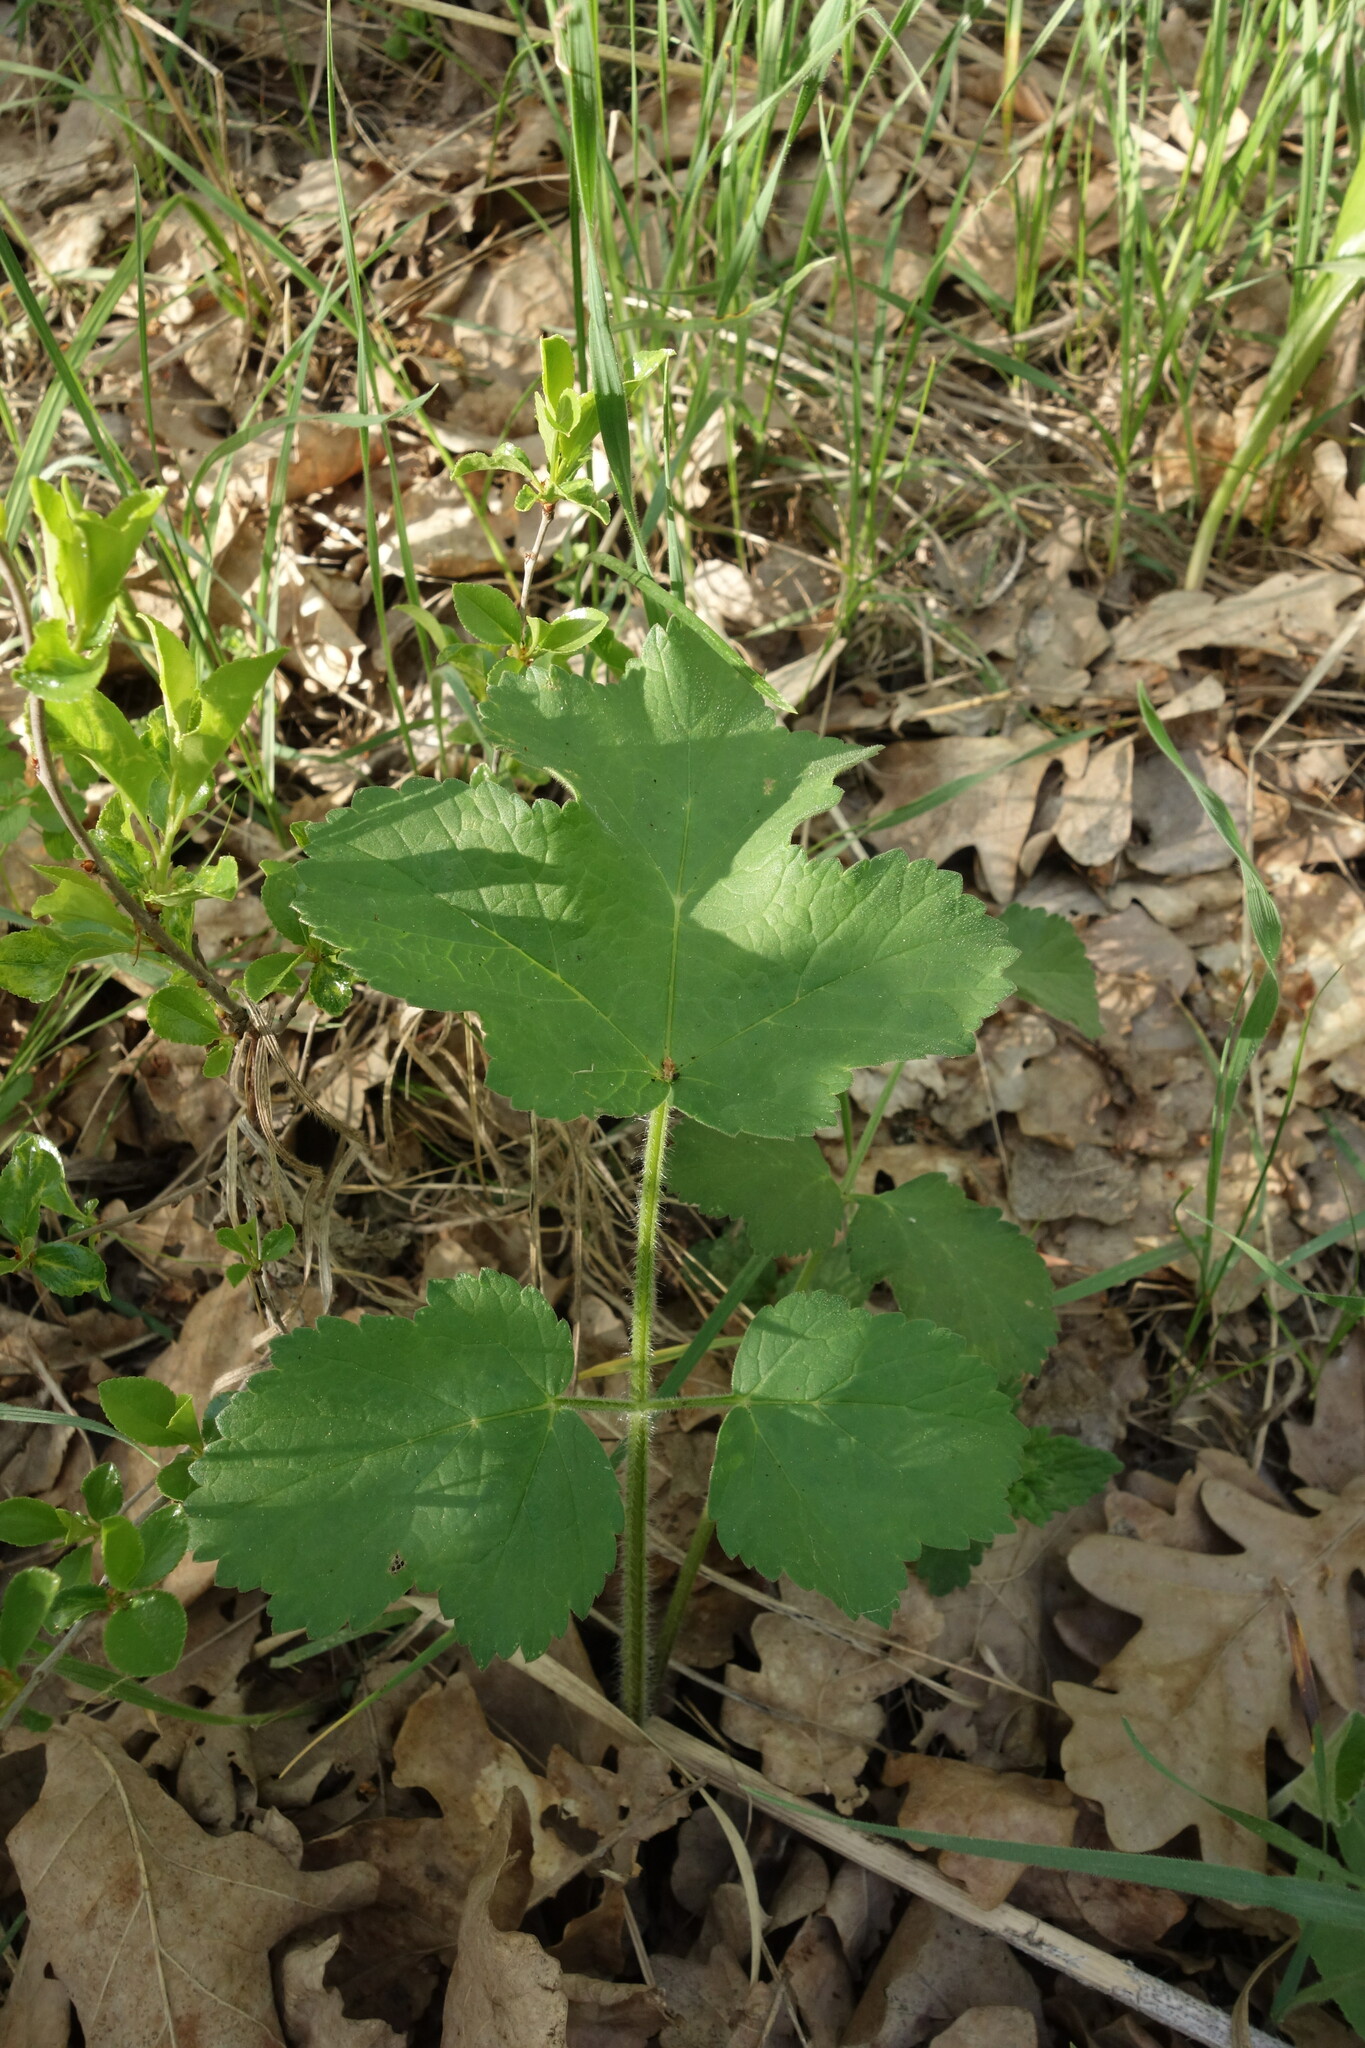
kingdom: Plantae
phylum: Tracheophyta
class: Magnoliopsida
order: Apiales
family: Apiaceae
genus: Heracleum
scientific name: Heracleum sphondylium
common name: Hogweed
